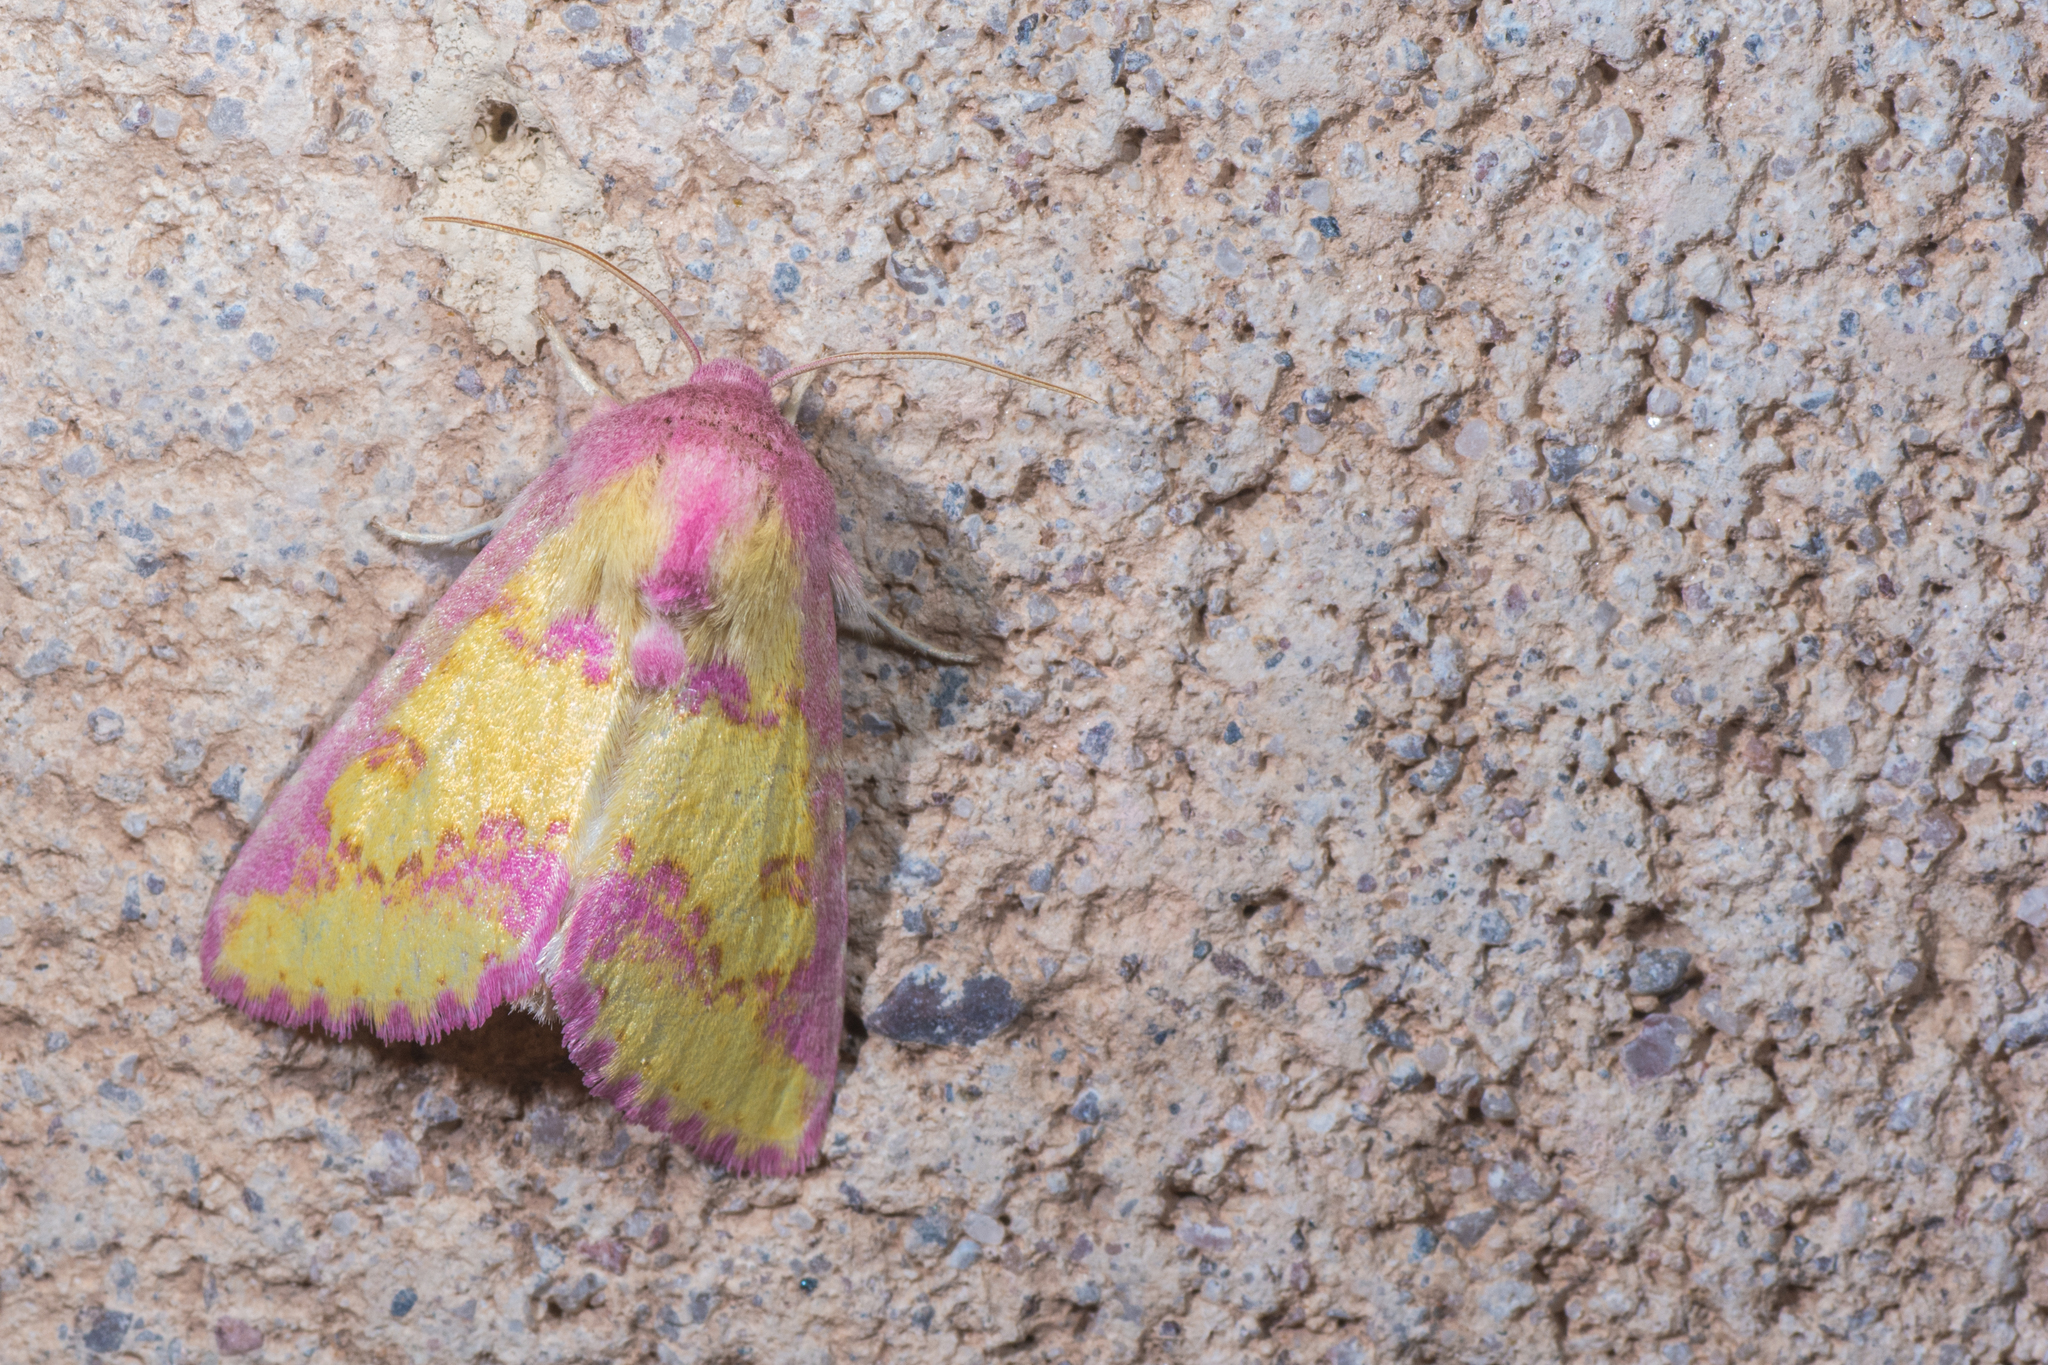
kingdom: Animalia
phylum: Arthropoda
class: Insecta
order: Lepidoptera
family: Noctuidae
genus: Psectrotarsia
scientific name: Psectrotarsia suavis
